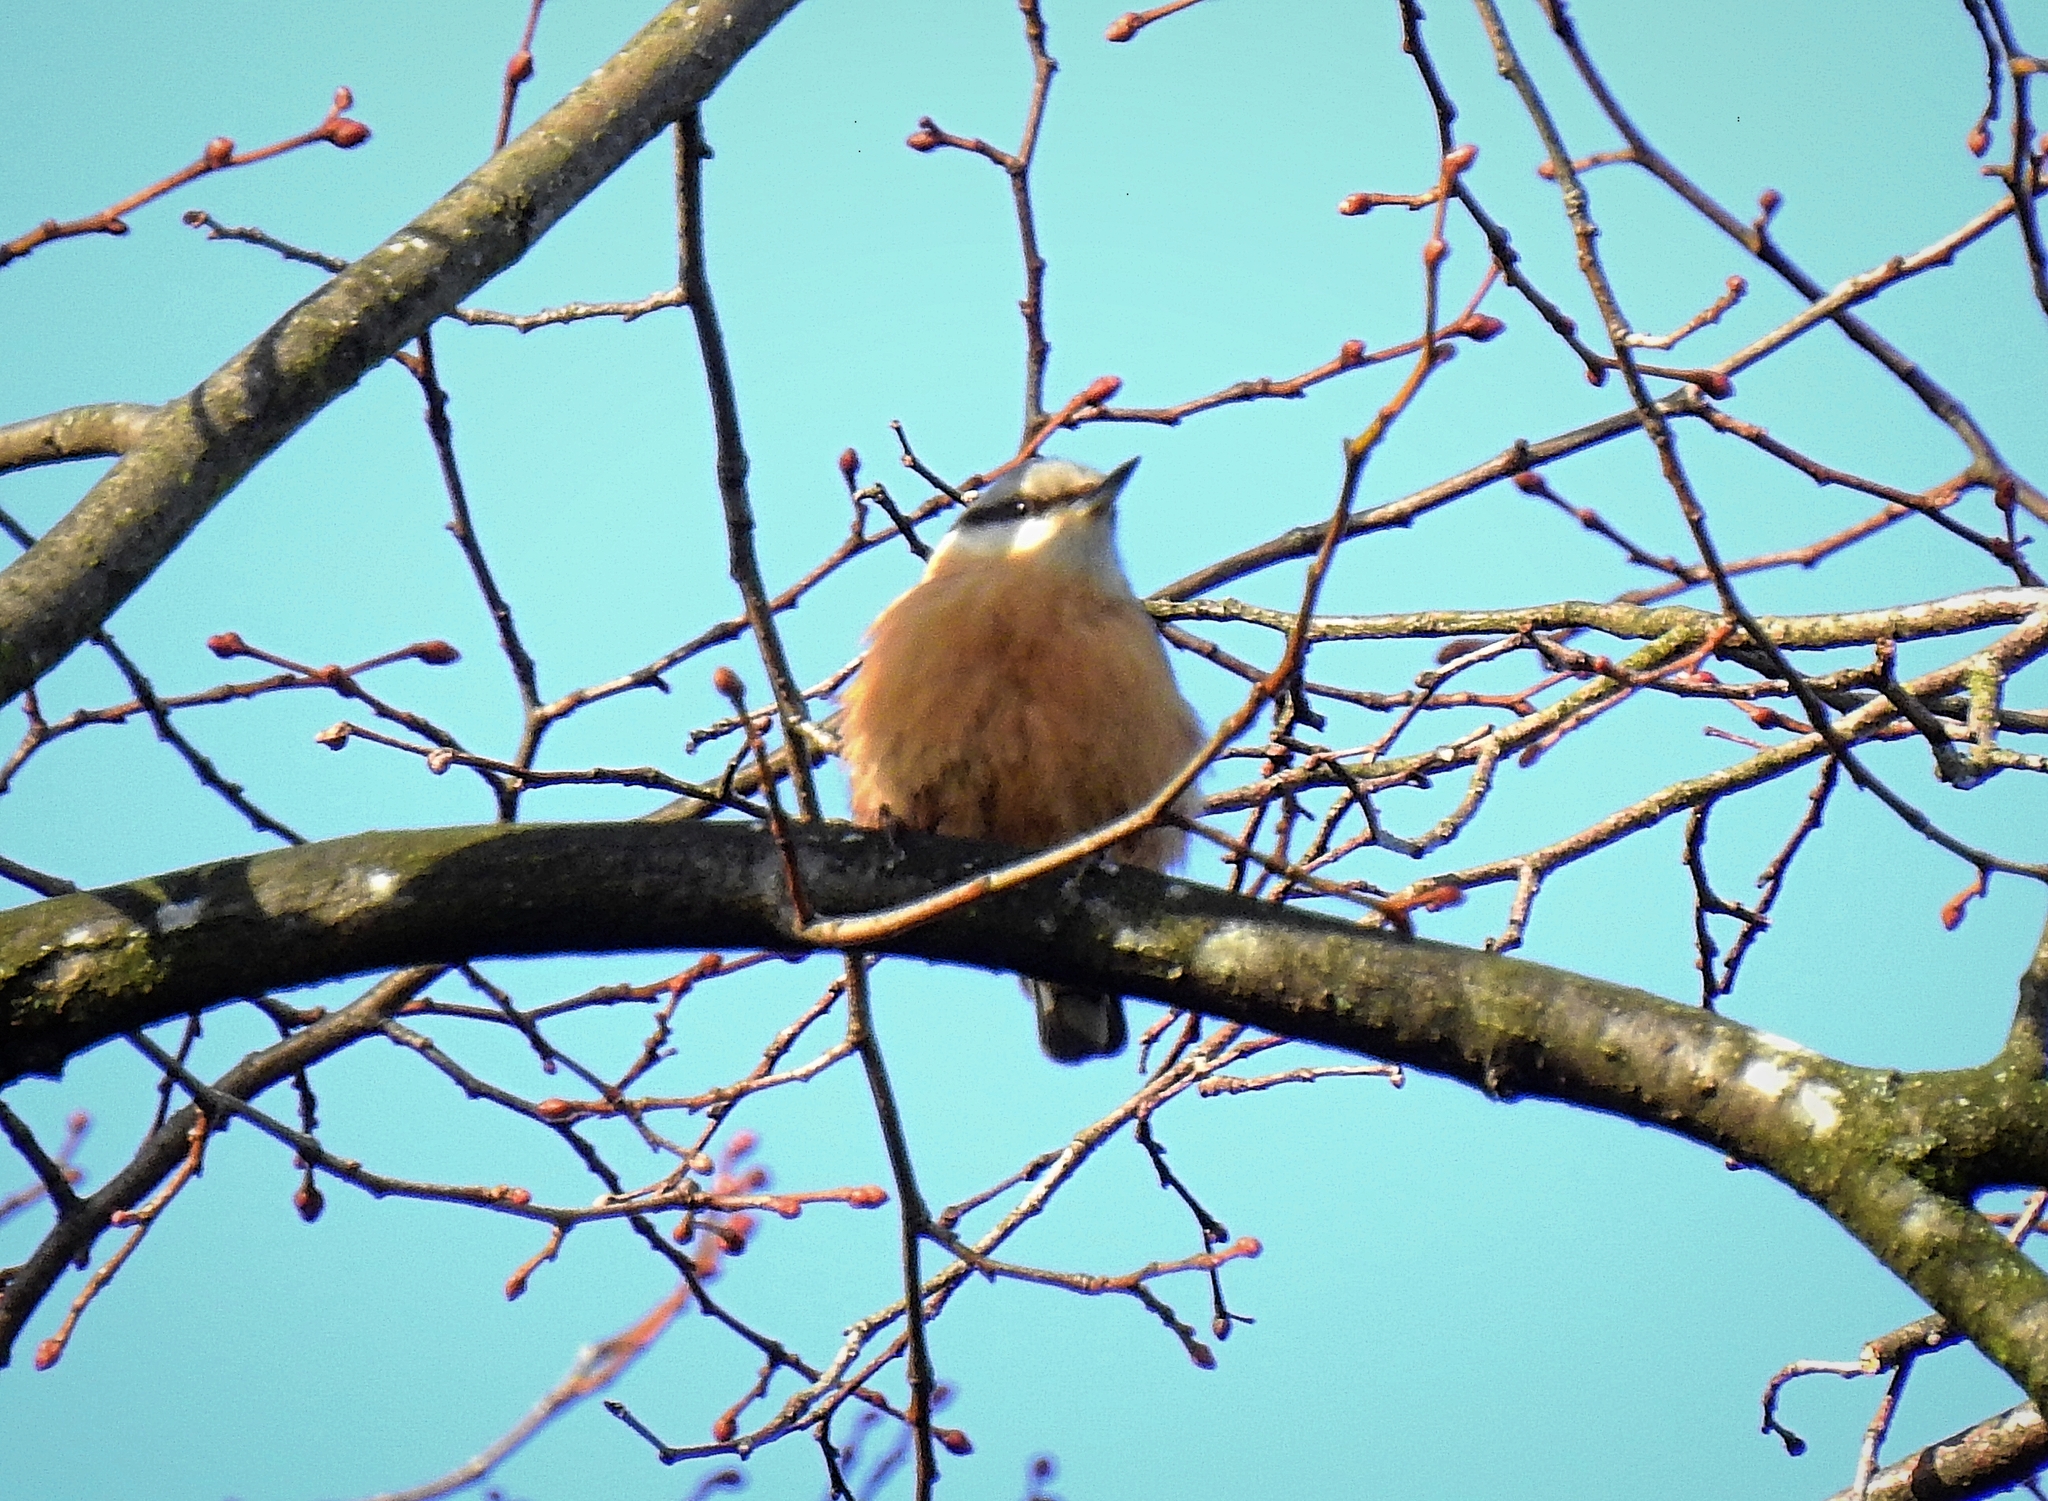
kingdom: Animalia
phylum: Chordata
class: Aves
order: Passeriformes
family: Sittidae
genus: Sitta
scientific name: Sitta europaea
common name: Eurasian nuthatch
